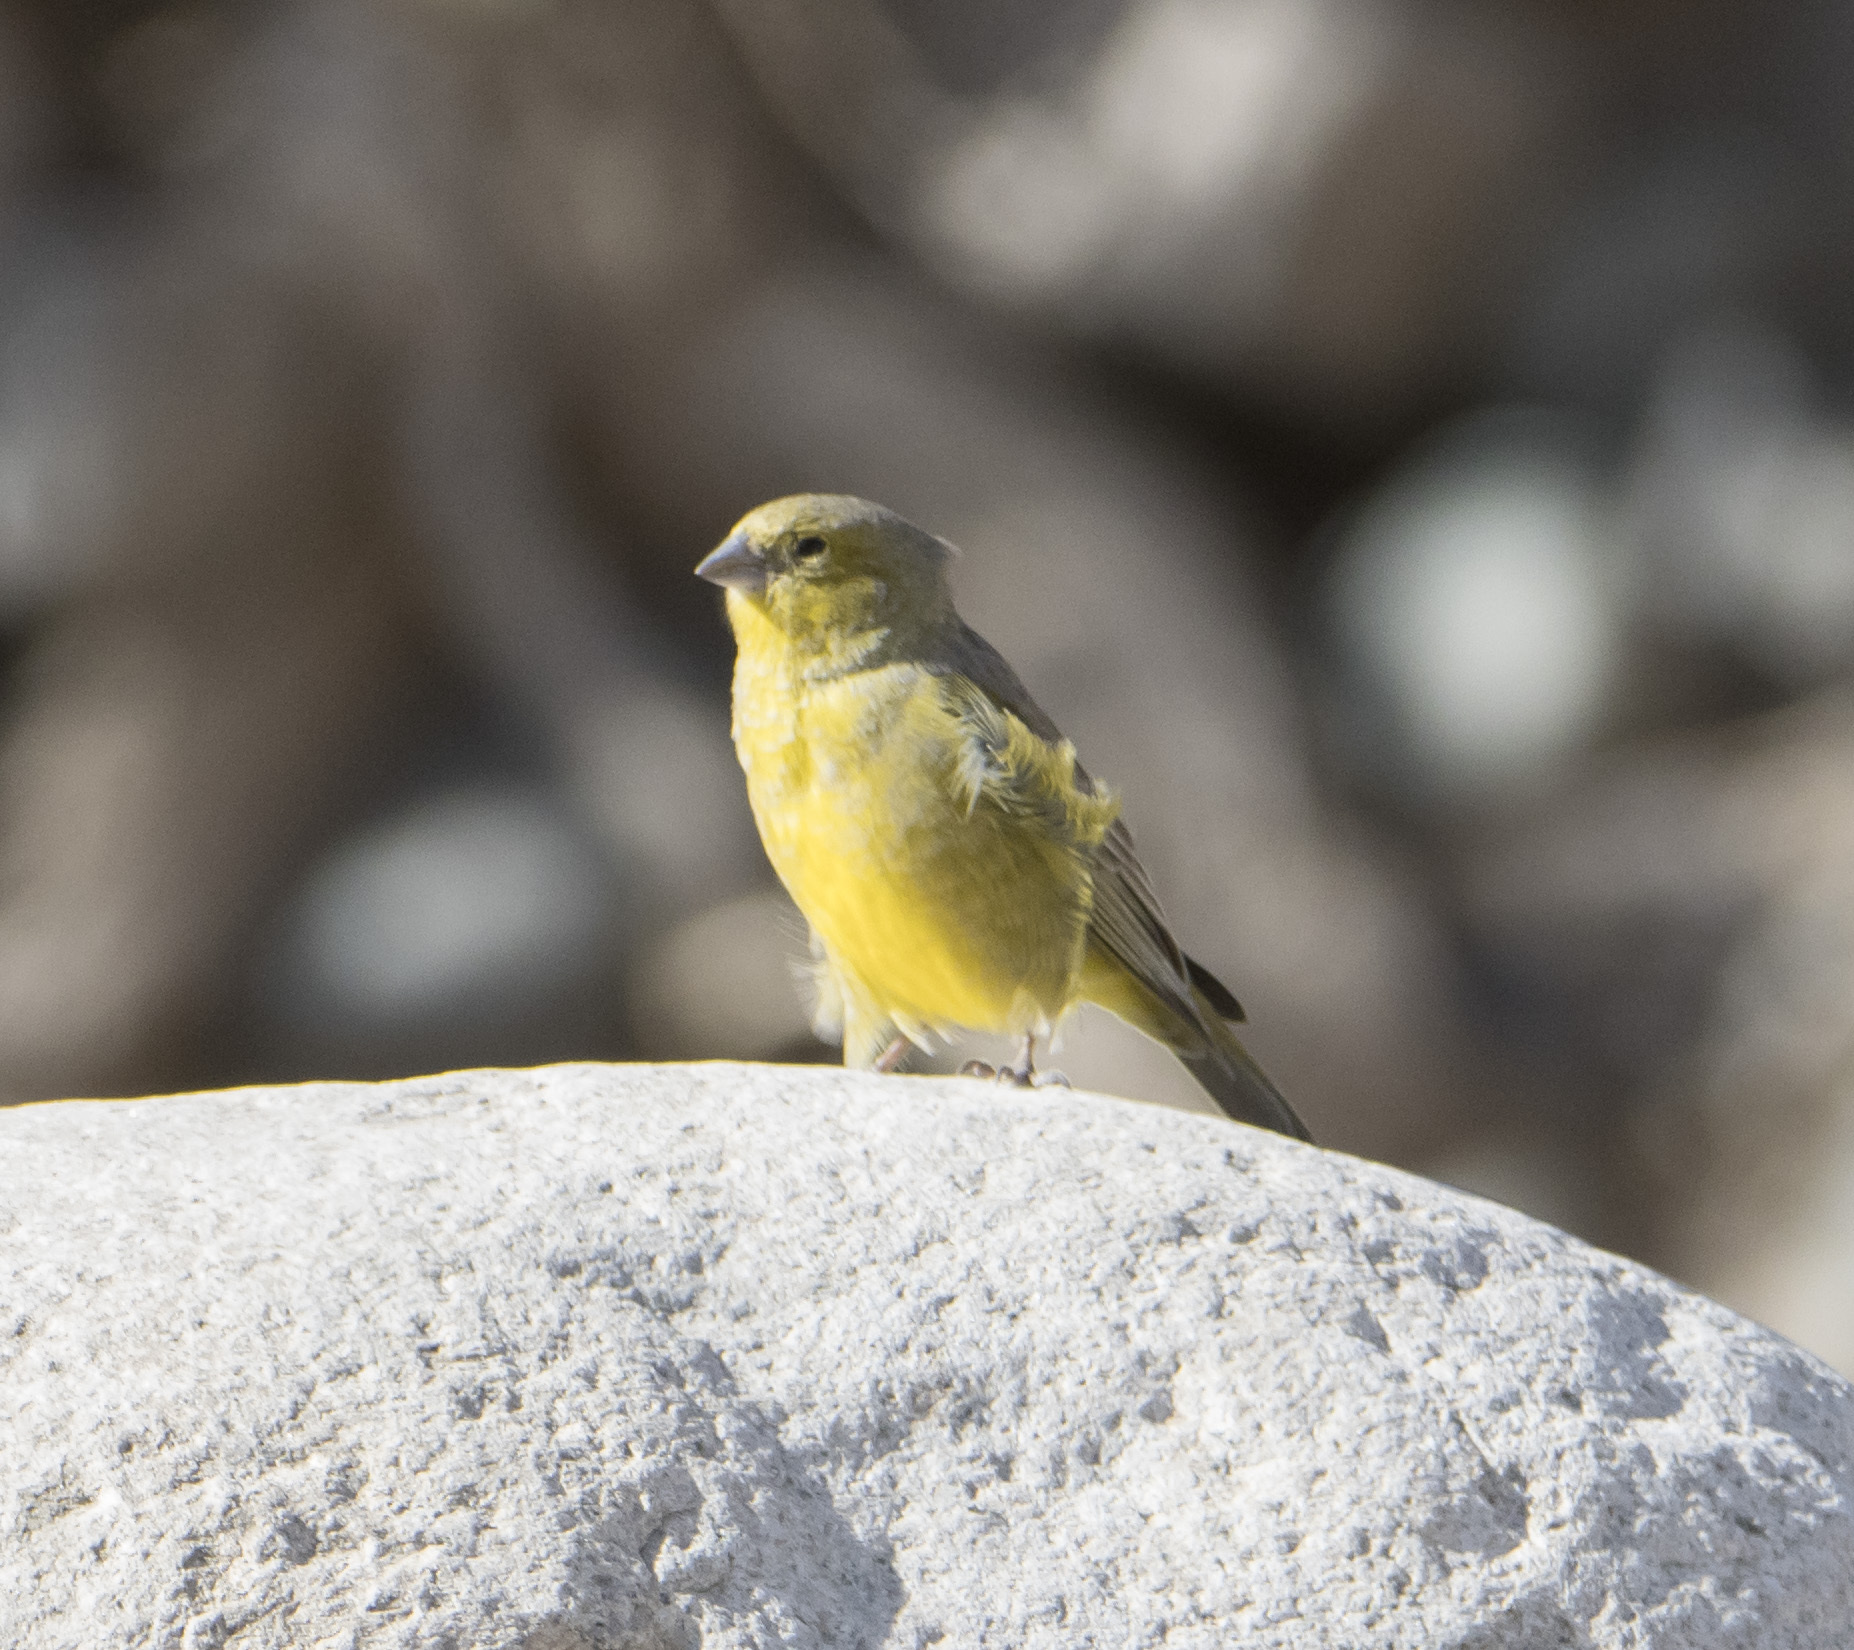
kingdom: Animalia
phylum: Chordata
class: Aves
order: Passeriformes
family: Thraupidae
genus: Sicalis
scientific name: Sicalis olivascens
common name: Greenish yellow finch
